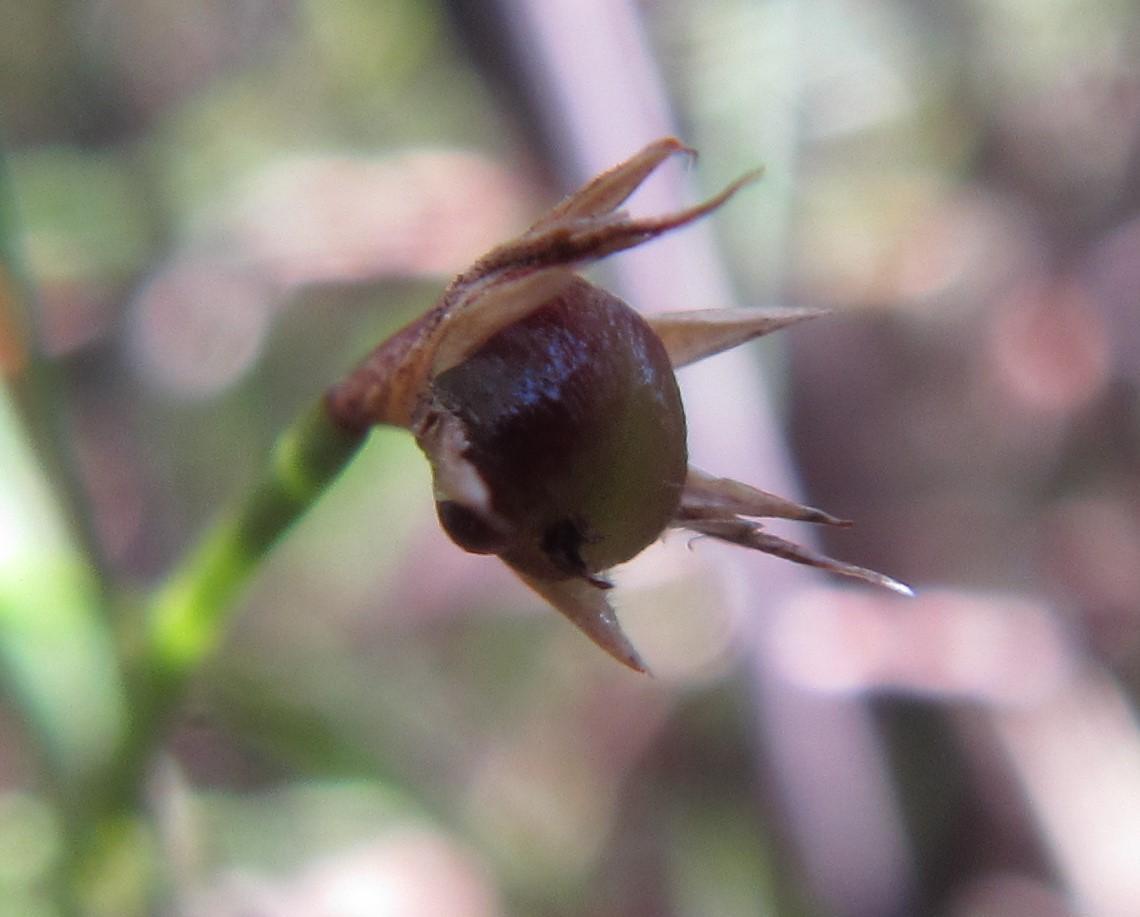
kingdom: Plantae
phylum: Tracheophyta
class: Liliopsida
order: Poales
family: Restionaceae
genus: Platycaulos
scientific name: Platycaulos depauperatus
